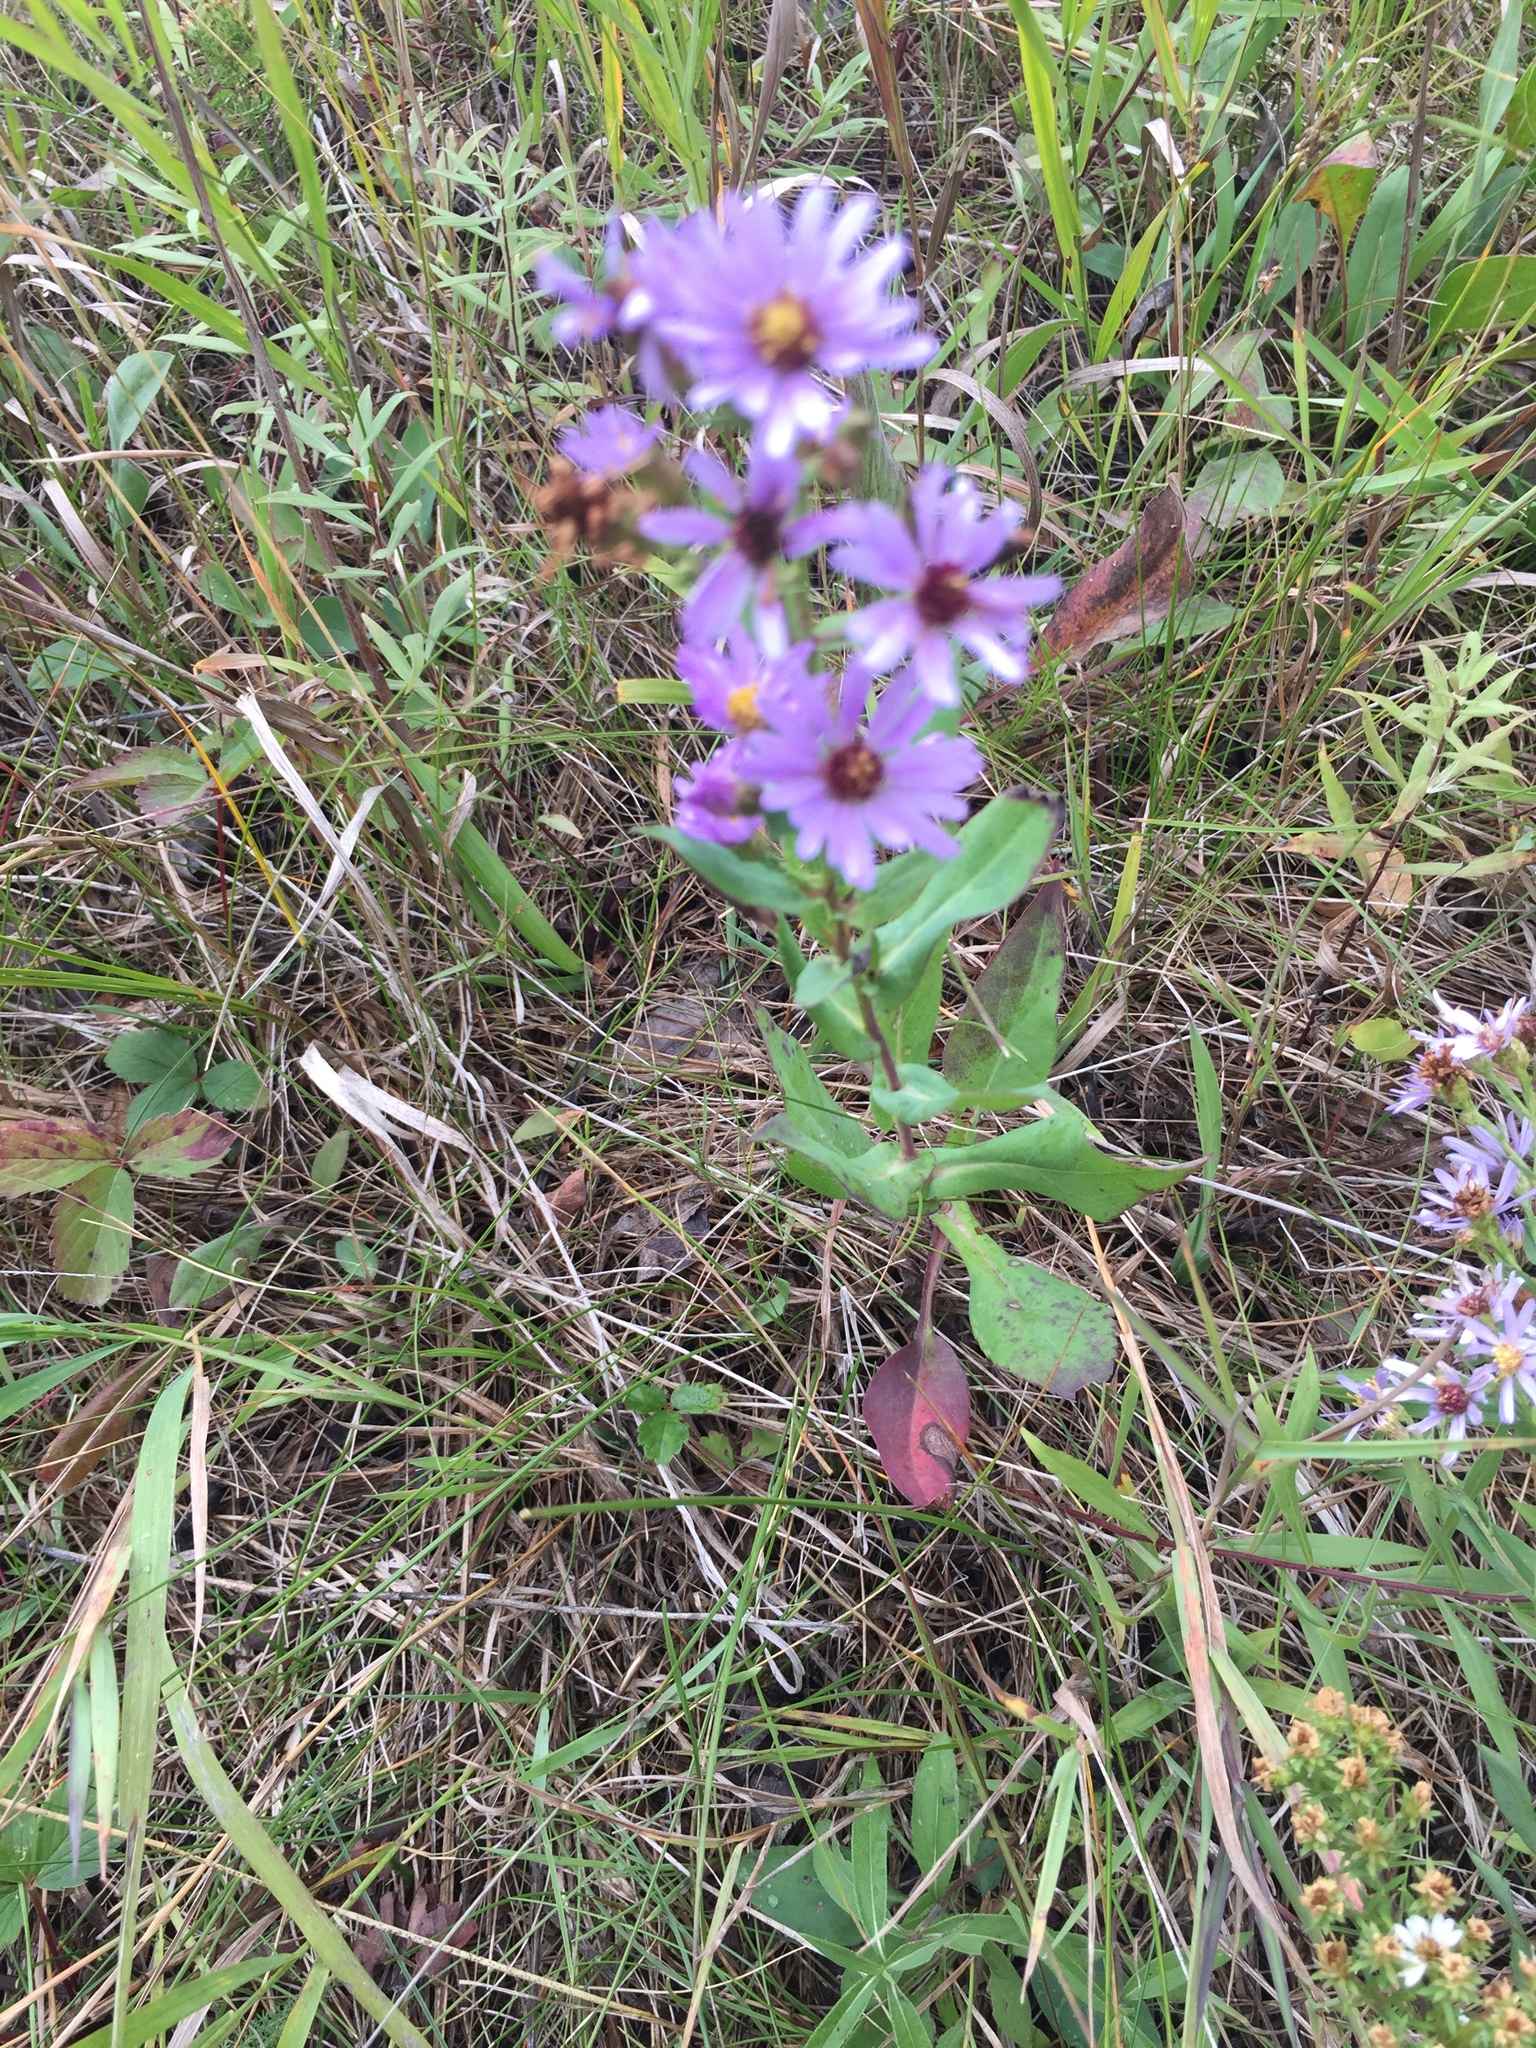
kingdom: Plantae
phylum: Tracheophyta
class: Magnoliopsida
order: Asterales
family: Asteraceae
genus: Symphyotrichum
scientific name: Symphyotrichum laeve
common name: Glaucous aster
